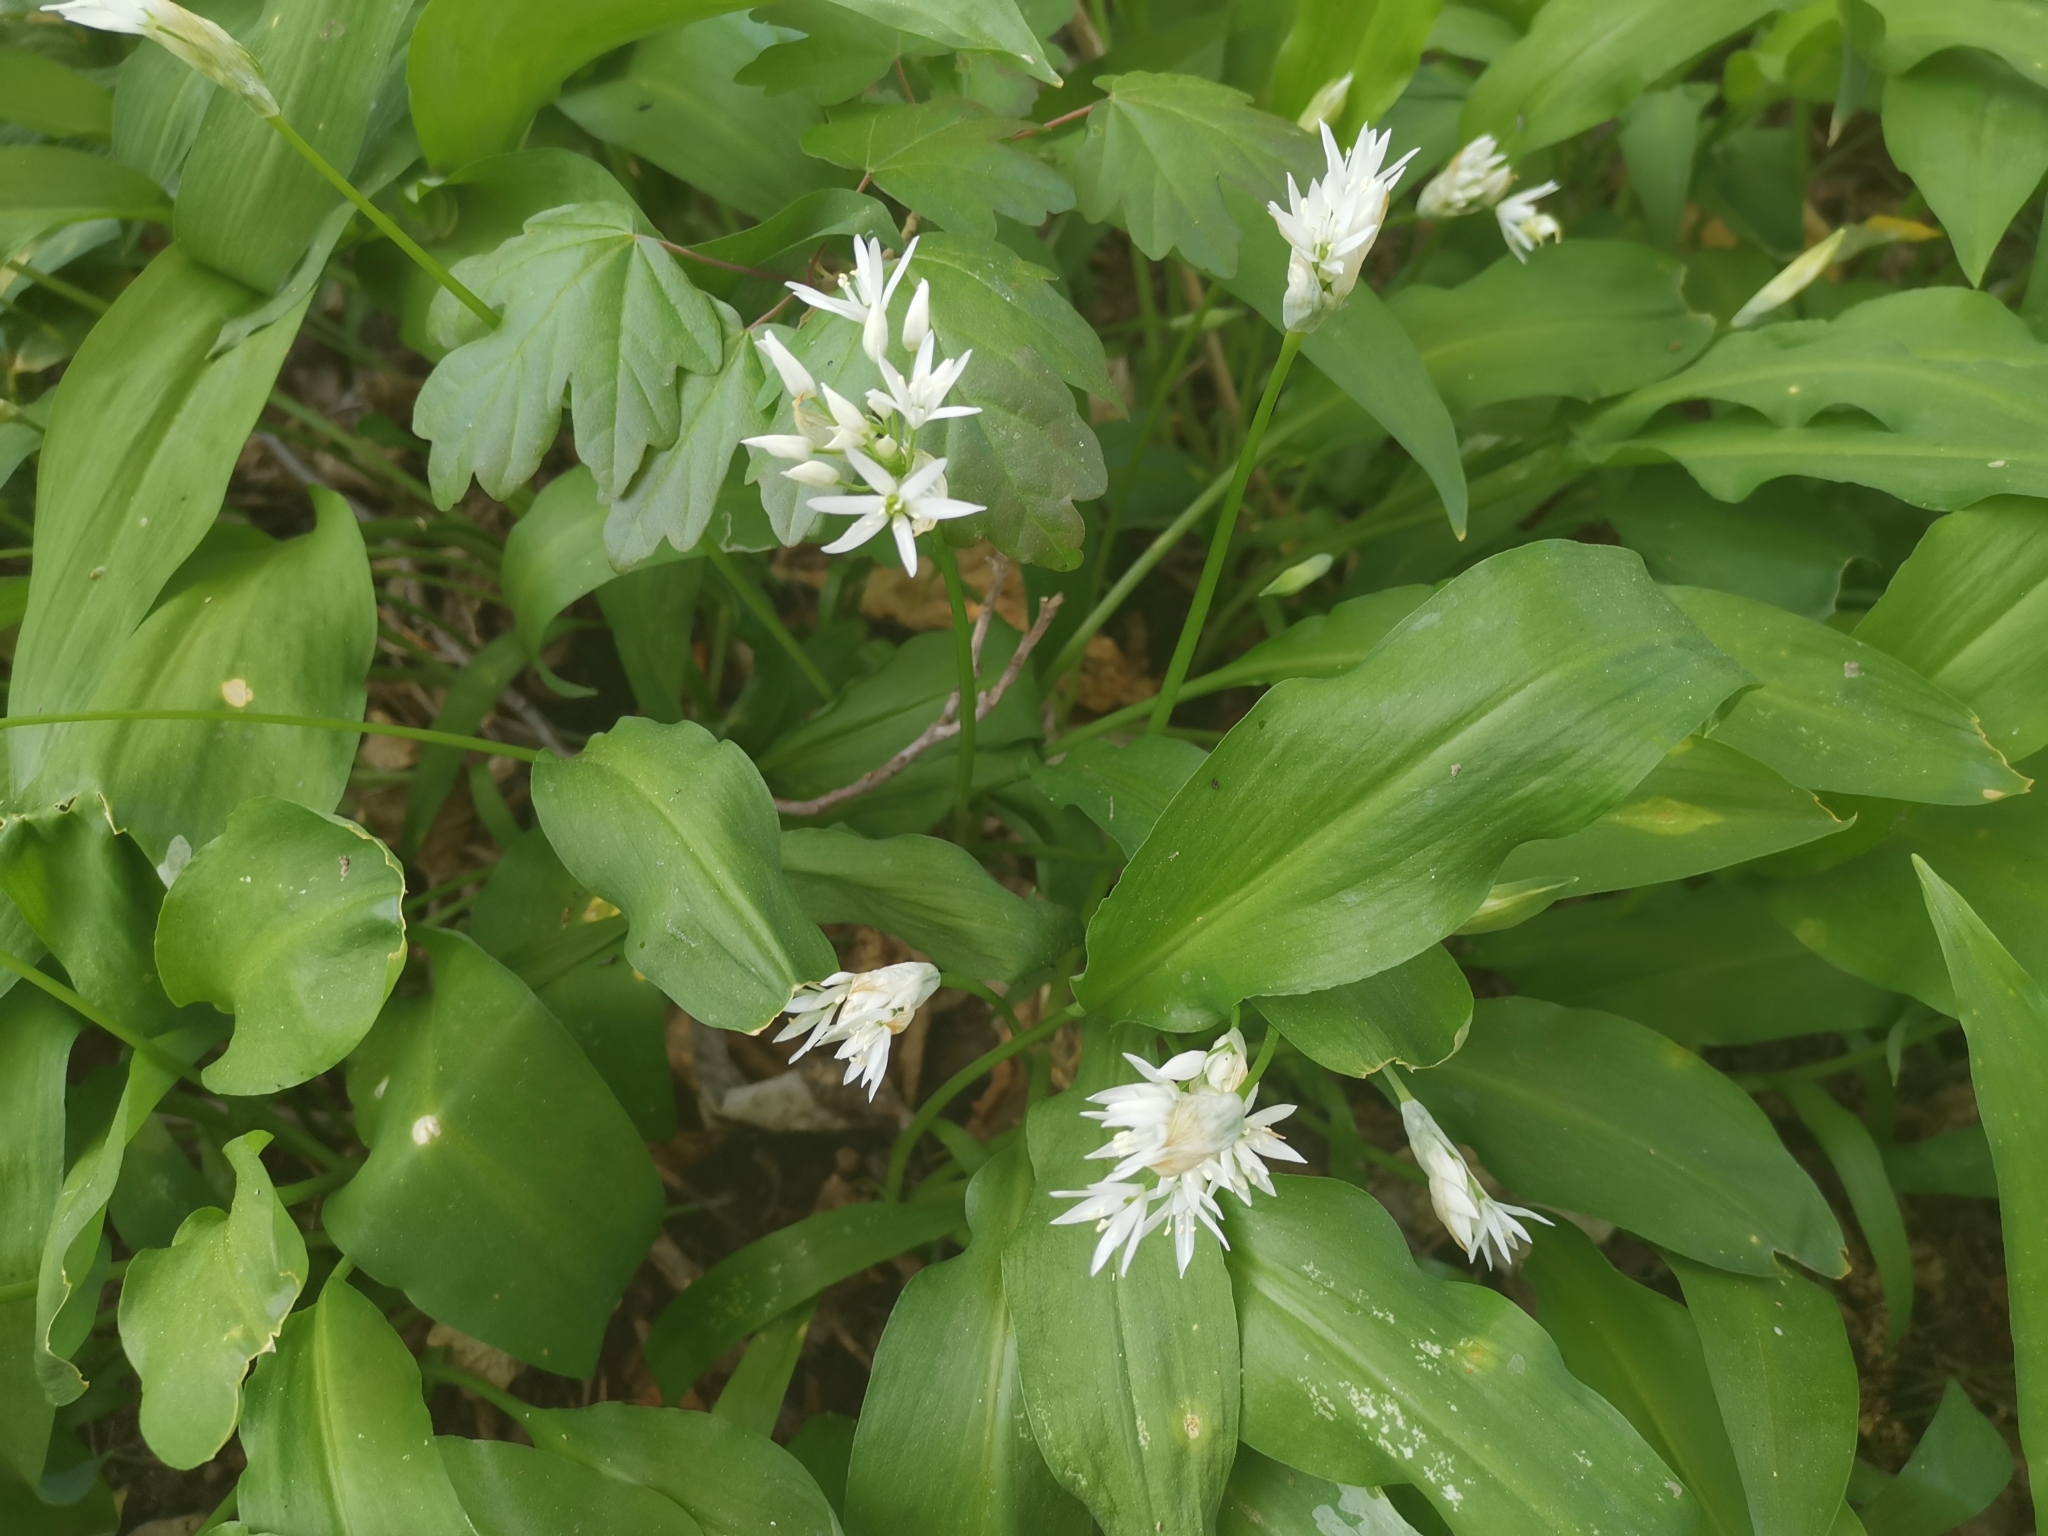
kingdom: Plantae
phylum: Tracheophyta
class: Liliopsida
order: Asparagales
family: Amaryllidaceae
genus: Allium
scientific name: Allium ursinum
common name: Ramsons
